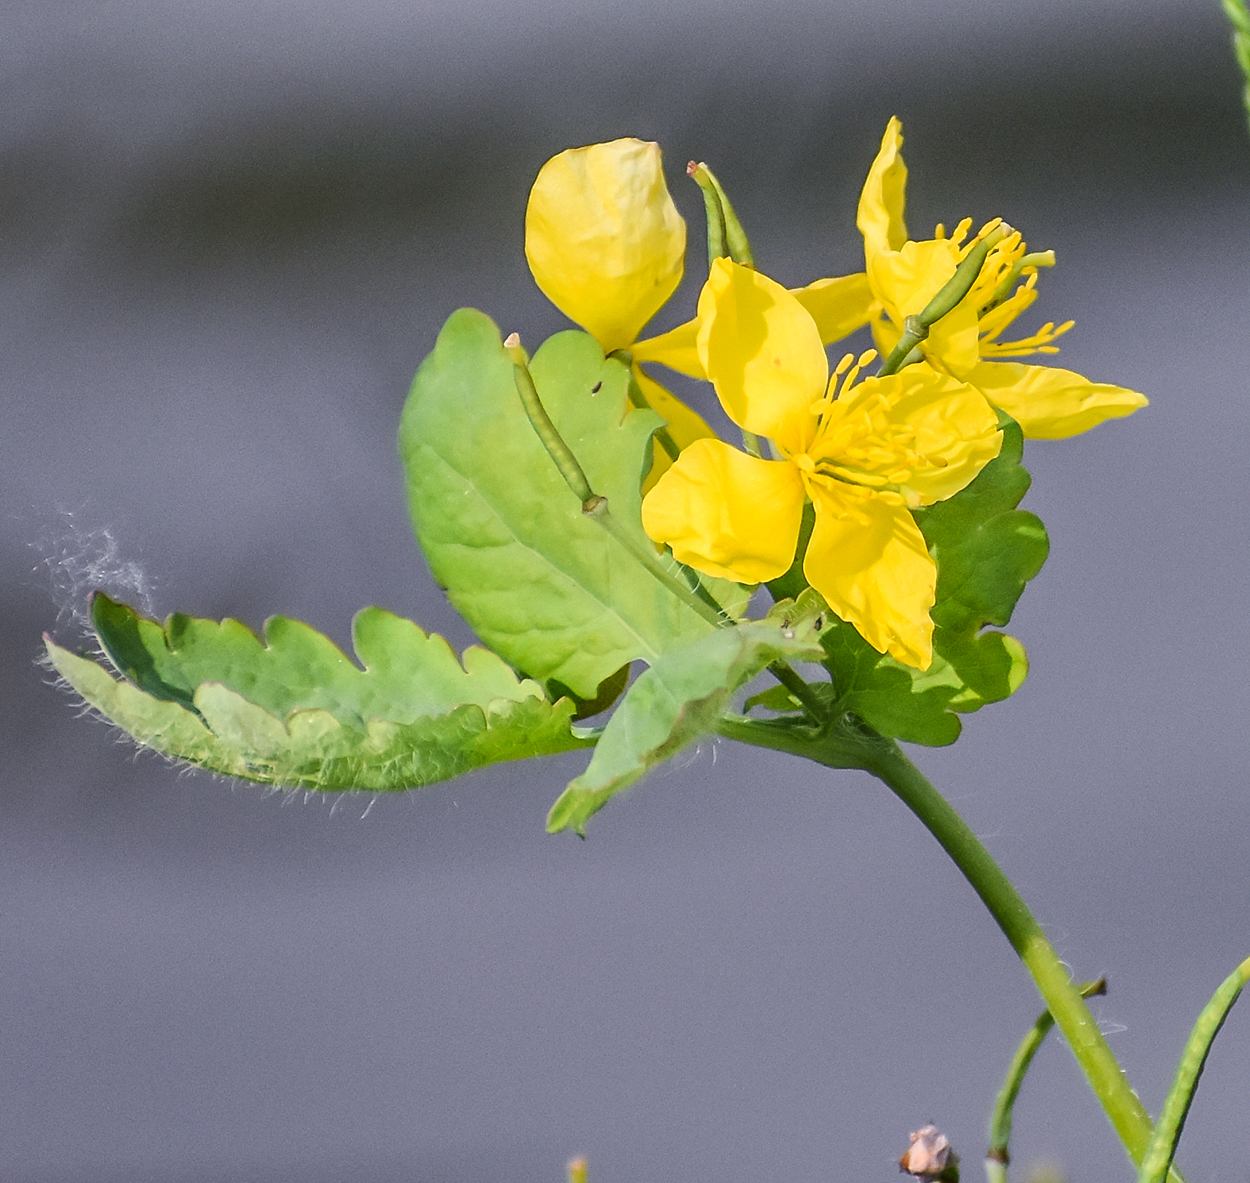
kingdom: Plantae
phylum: Tracheophyta
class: Magnoliopsida
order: Ranunculales
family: Papaveraceae
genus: Chelidonium
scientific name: Chelidonium majus
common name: Greater celandine
